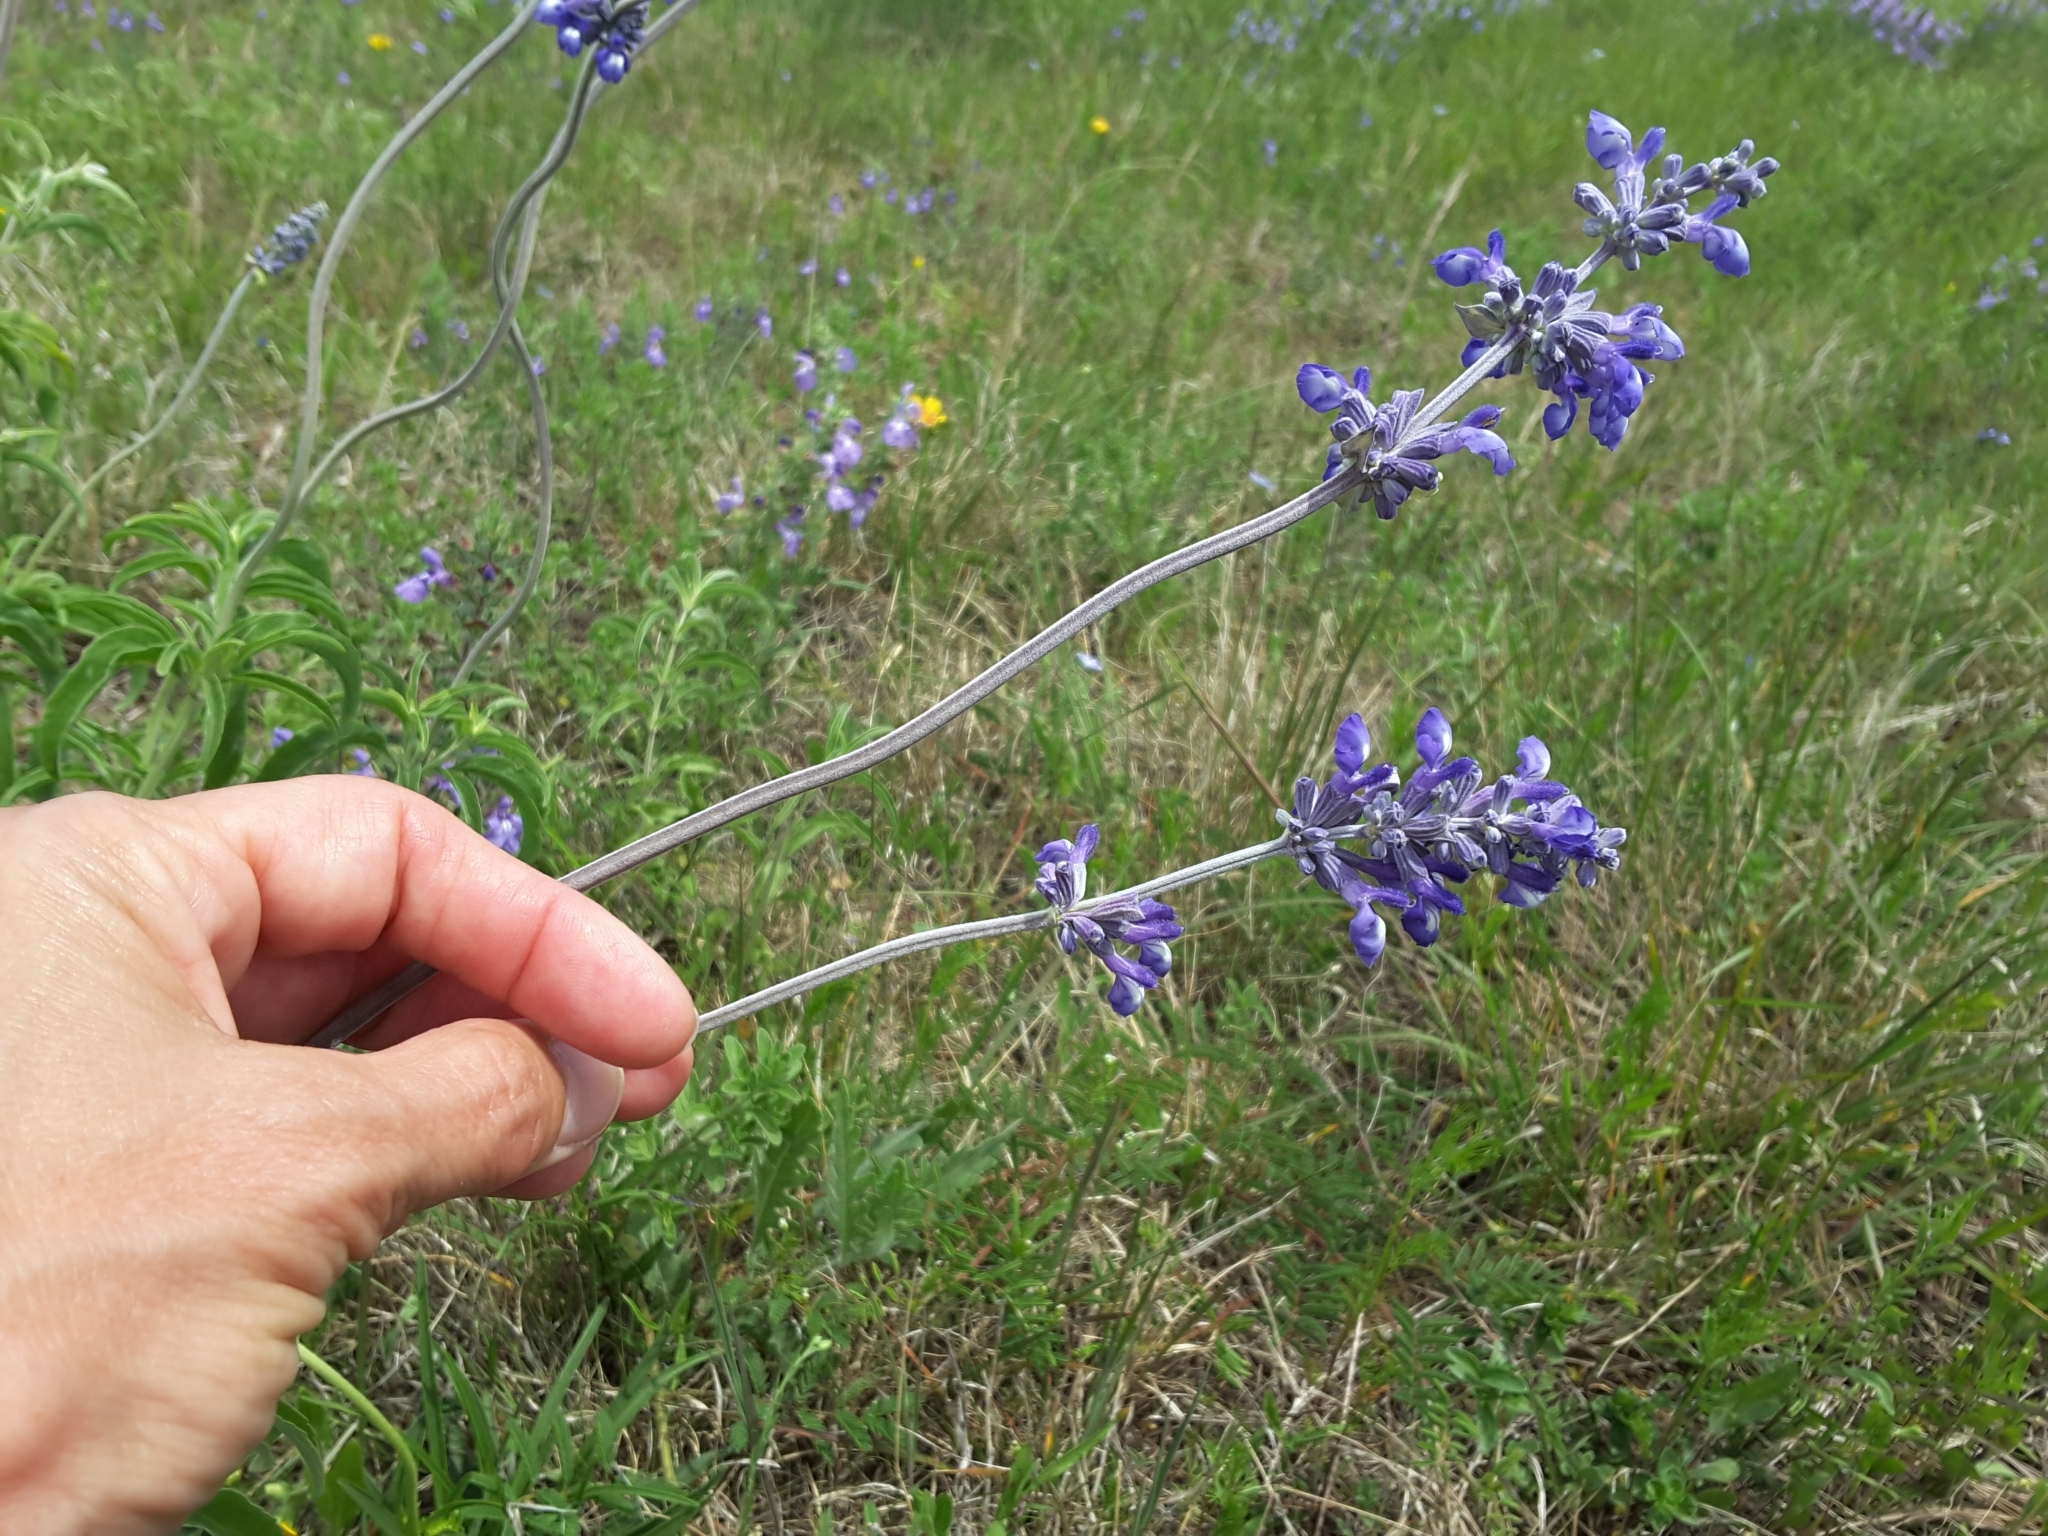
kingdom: Plantae
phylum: Tracheophyta
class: Magnoliopsida
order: Lamiales
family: Lamiaceae
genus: Salvia
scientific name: Salvia farinacea
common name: Mealy sage
